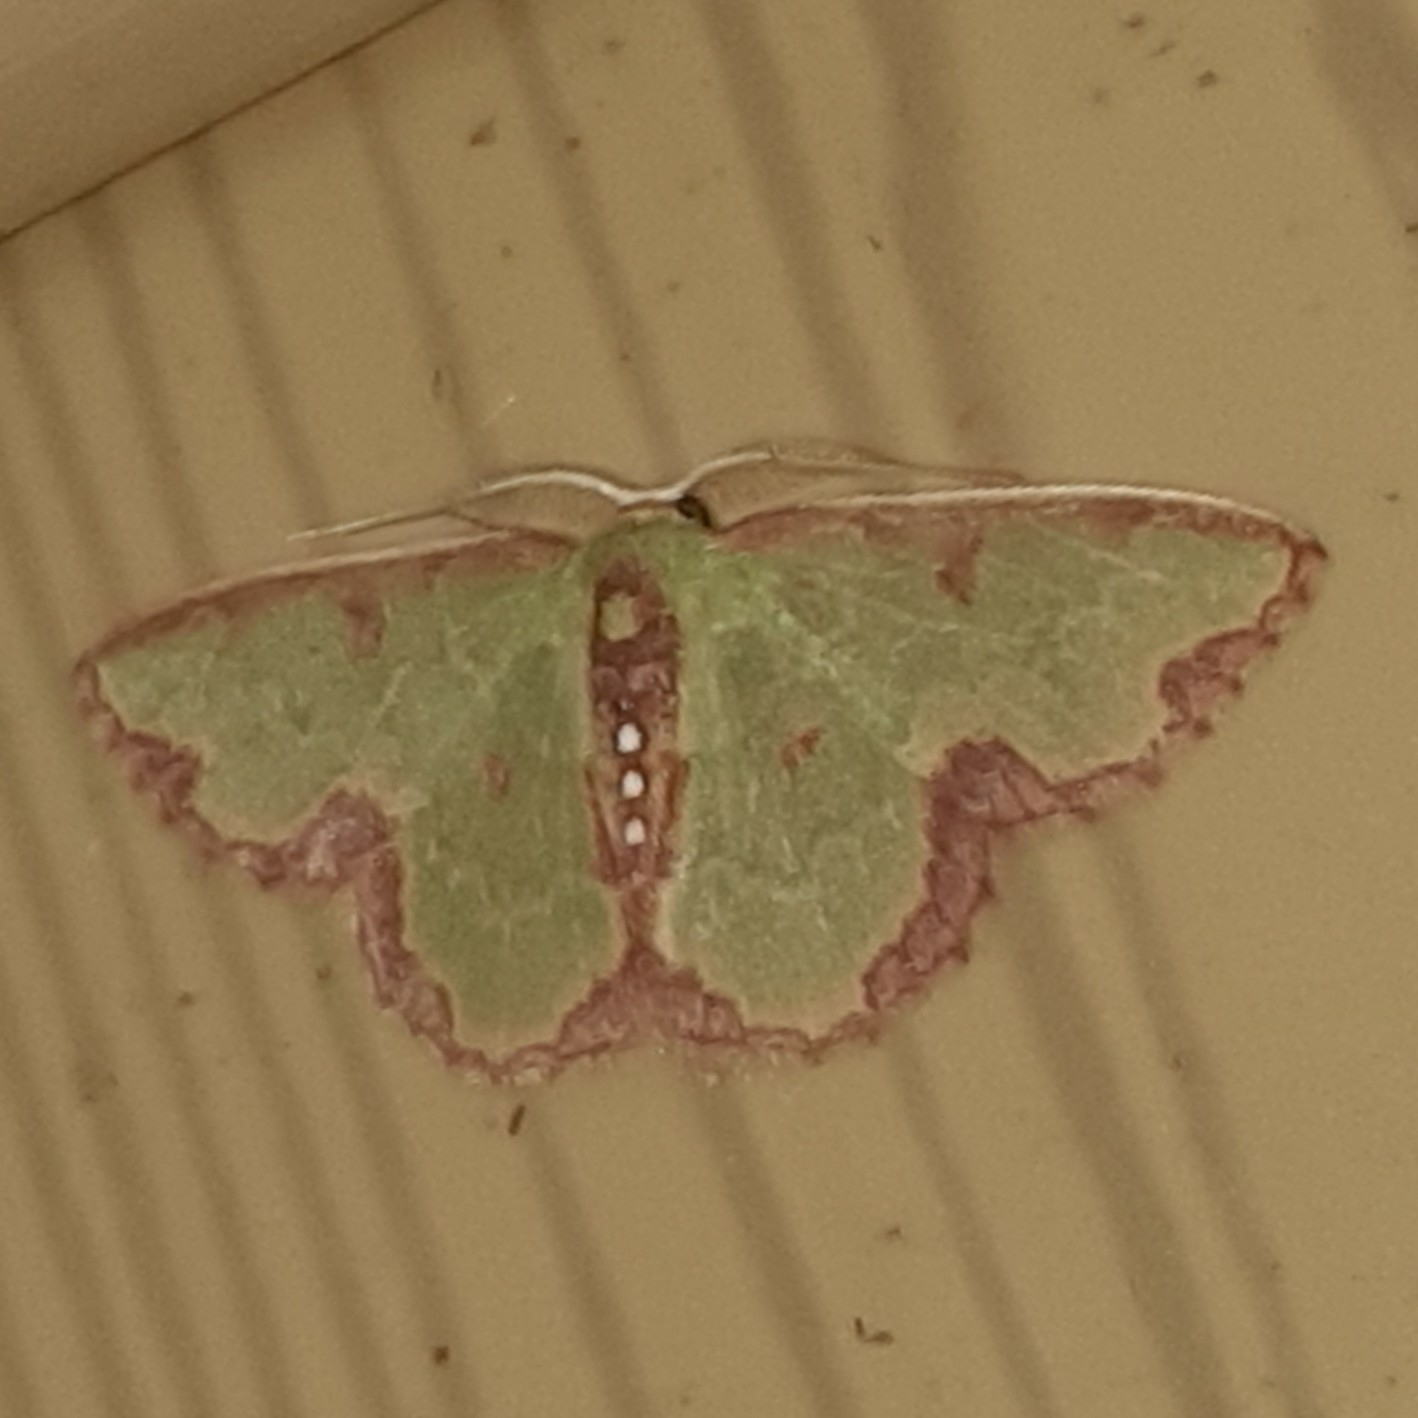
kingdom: Animalia
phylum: Arthropoda
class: Insecta
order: Lepidoptera
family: Geometridae
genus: Synchlora
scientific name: Synchlora dependens
